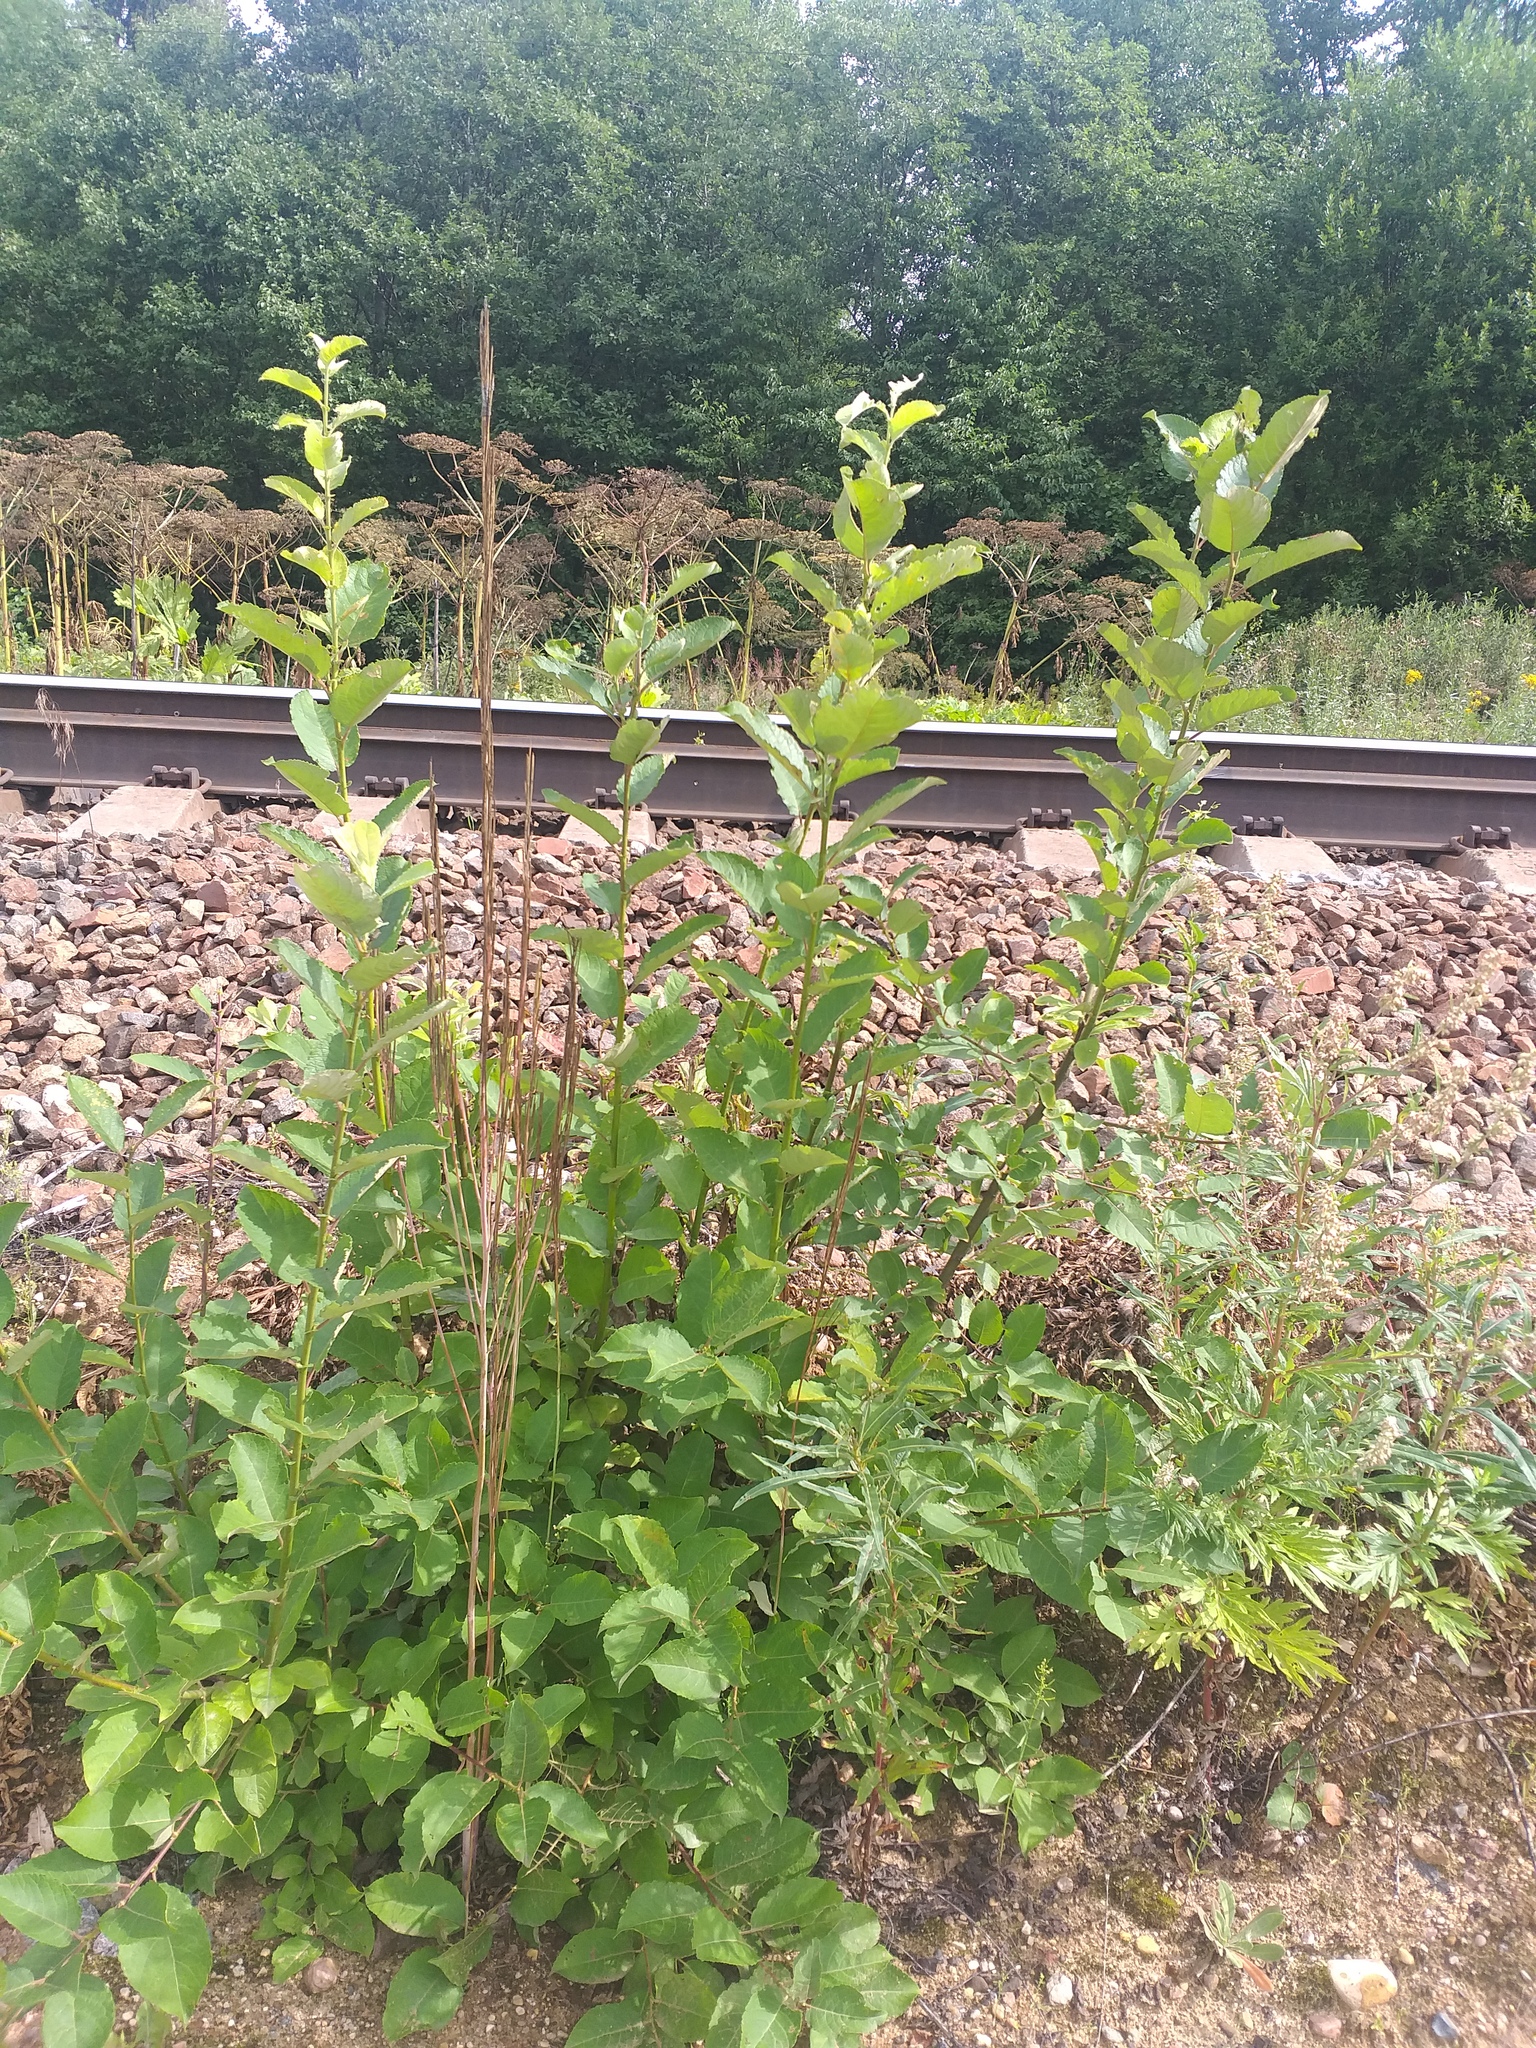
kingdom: Plantae
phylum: Tracheophyta
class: Magnoliopsida
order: Malpighiales
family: Salicaceae
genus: Salix
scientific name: Salix caprea
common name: Goat willow
